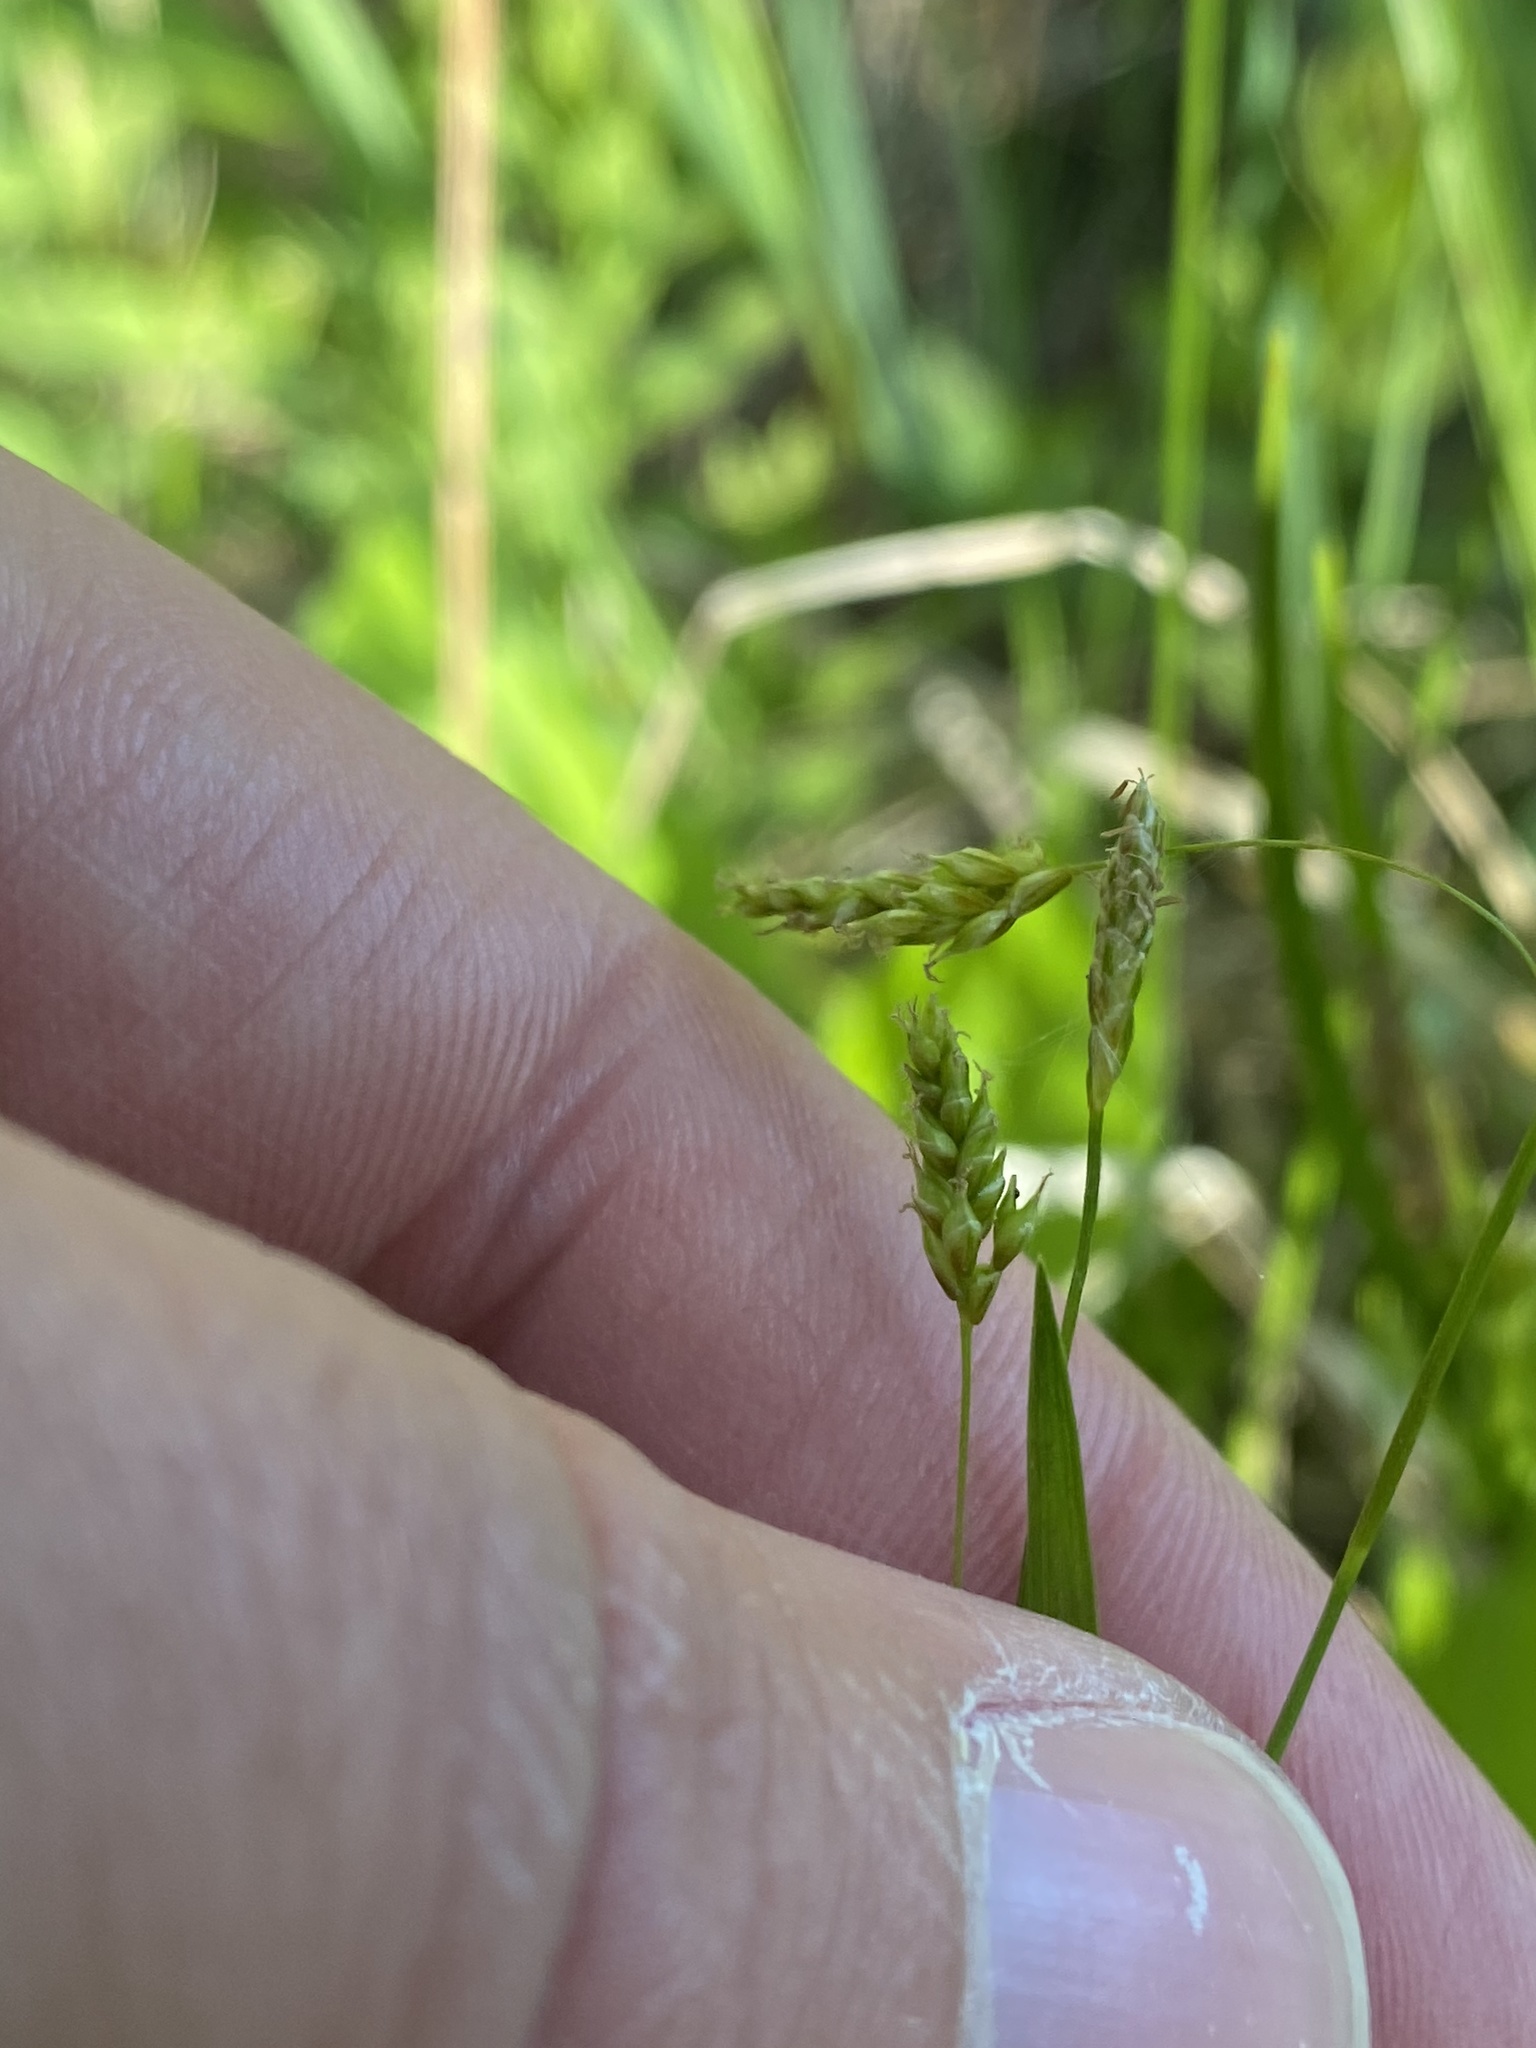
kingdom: Plantae
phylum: Tracheophyta
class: Liliopsida
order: Poales
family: Cyperaceae
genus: Carex
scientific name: Carex capillaris
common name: Hair sedge
